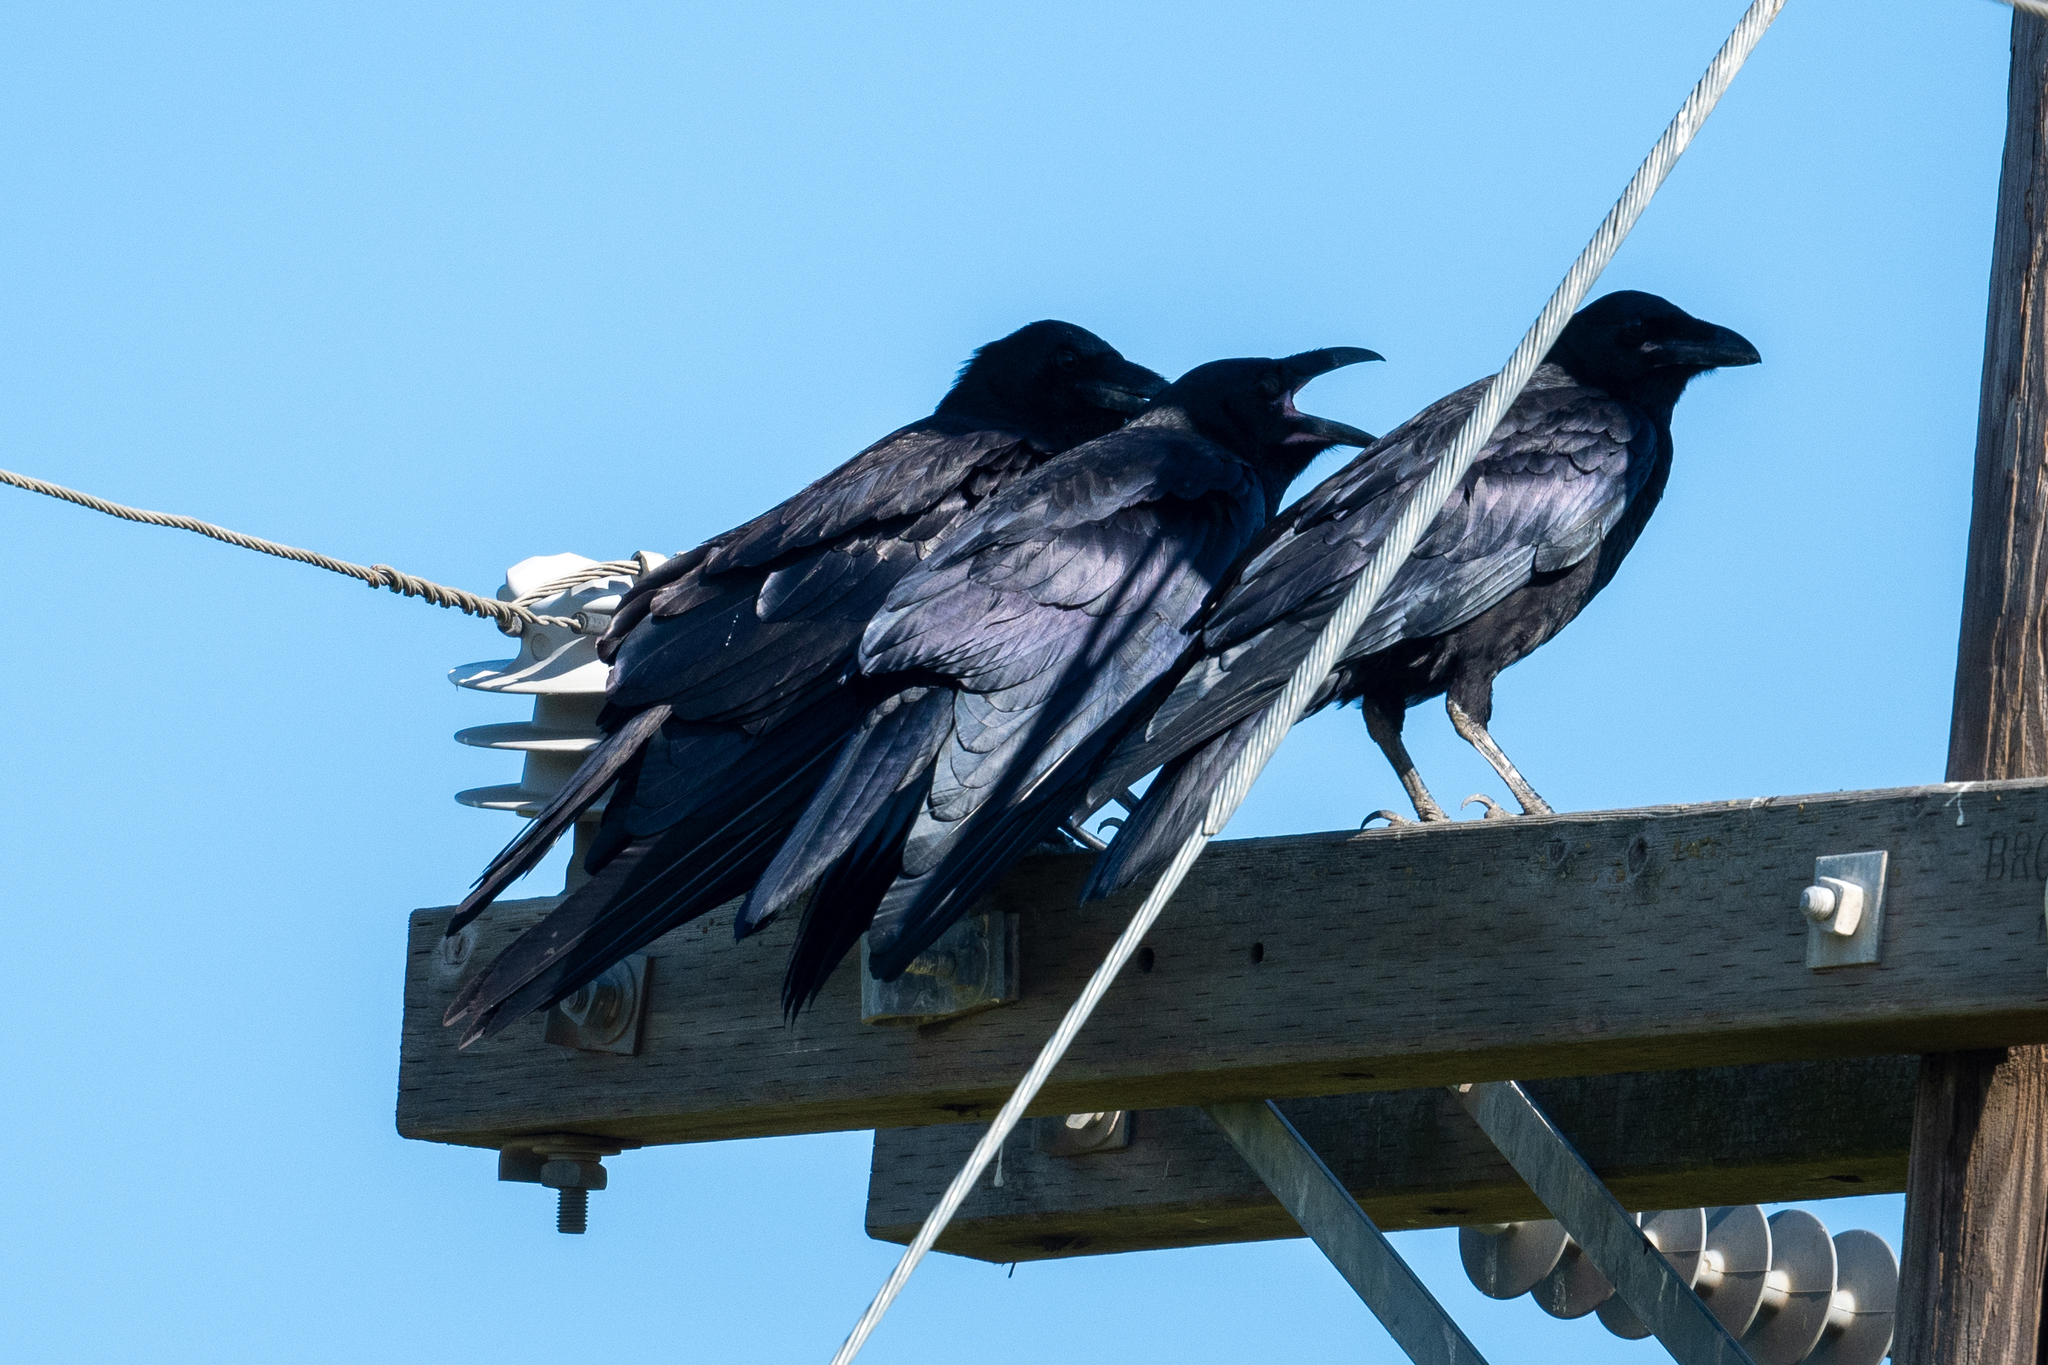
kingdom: Animalia
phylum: Chordata
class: Aves
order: Passeriformes
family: Corvidae
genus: Corvus
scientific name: Corvus corax
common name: Common raven
